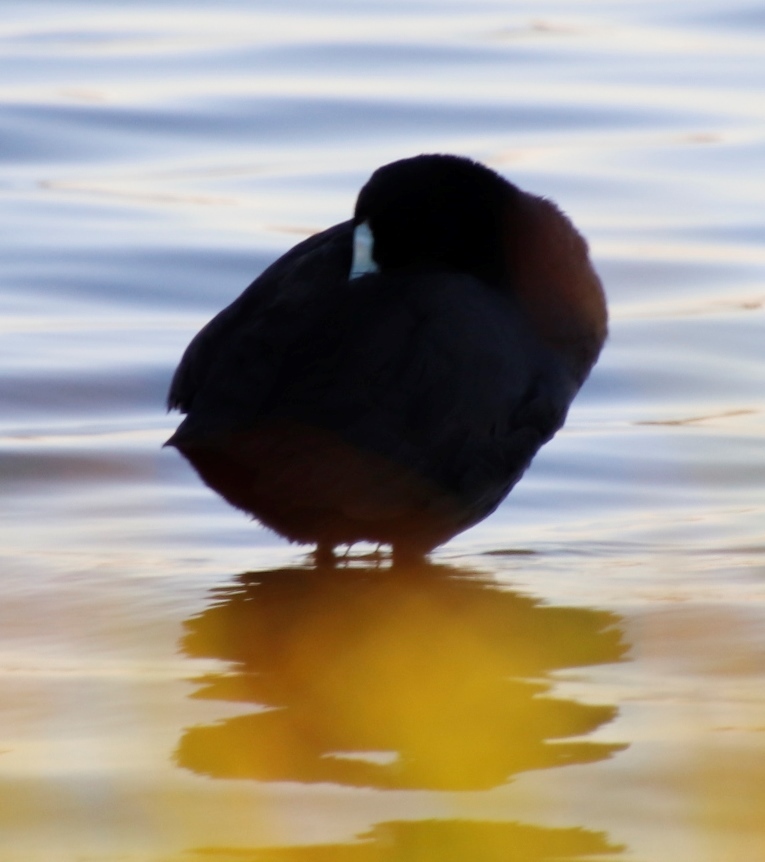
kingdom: Animalia
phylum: Chordata
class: Aves
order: Gruiformes
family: Rallidae
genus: Fulica
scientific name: Fulica cristata
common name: Red-knobbed coot
